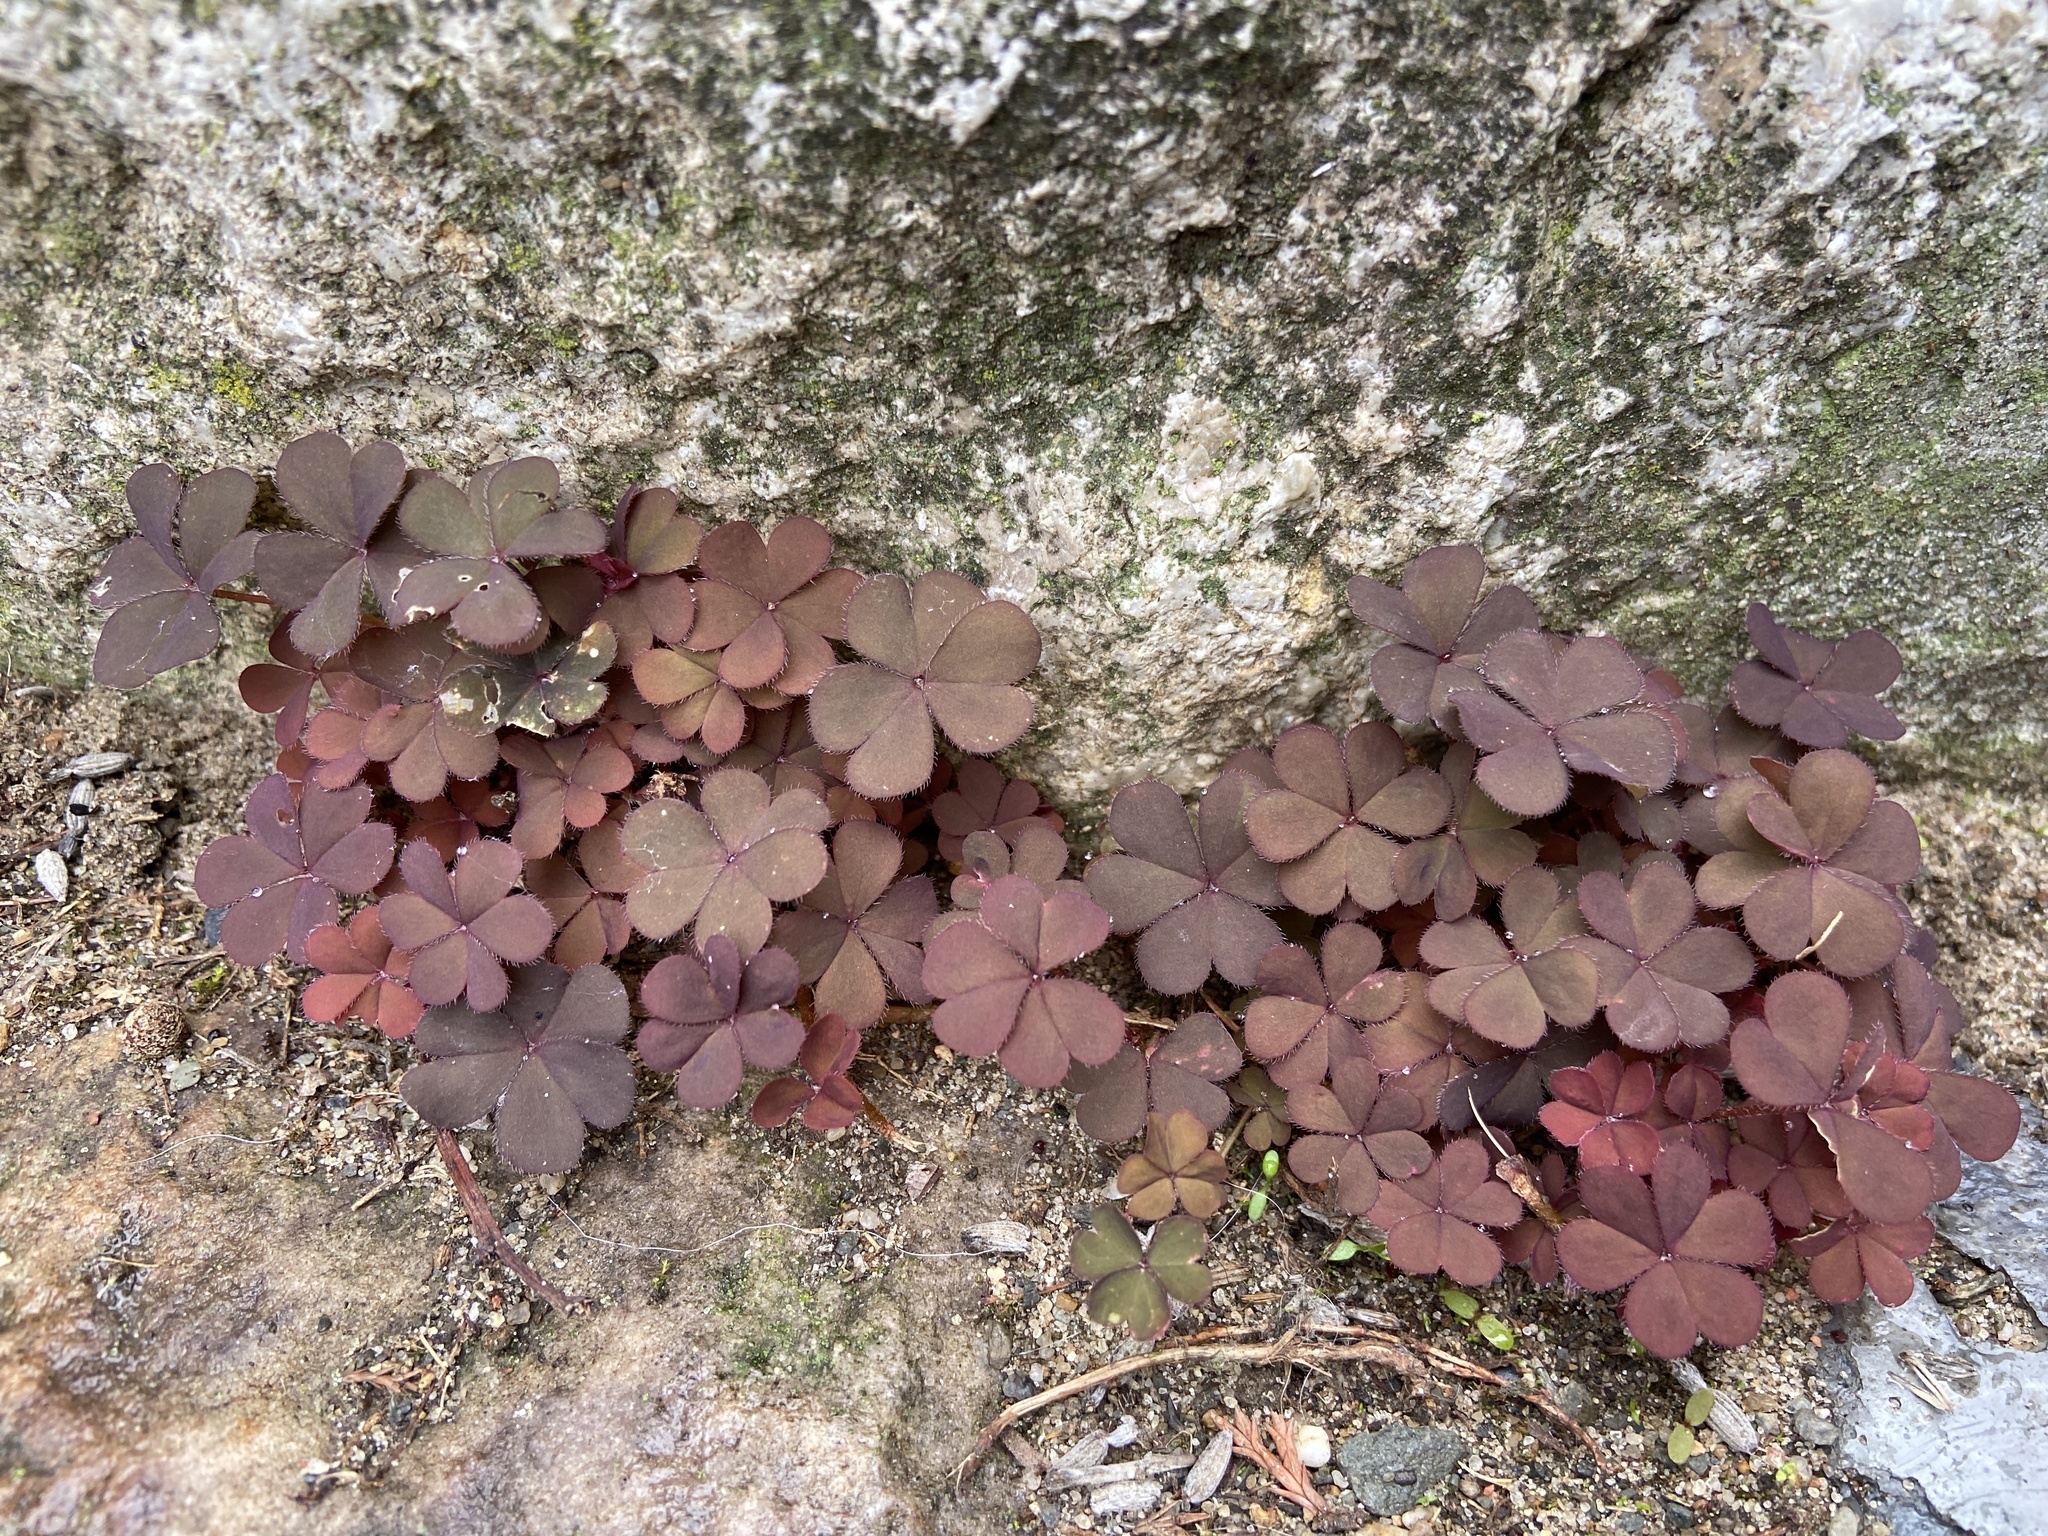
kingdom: Plantae
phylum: Tracheophyta
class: Magnoliopsida
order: Oxalidales
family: Oxalidaceae
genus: Oxalis
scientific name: Oxalis corniculata
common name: Procumbent yellow-sorrel
